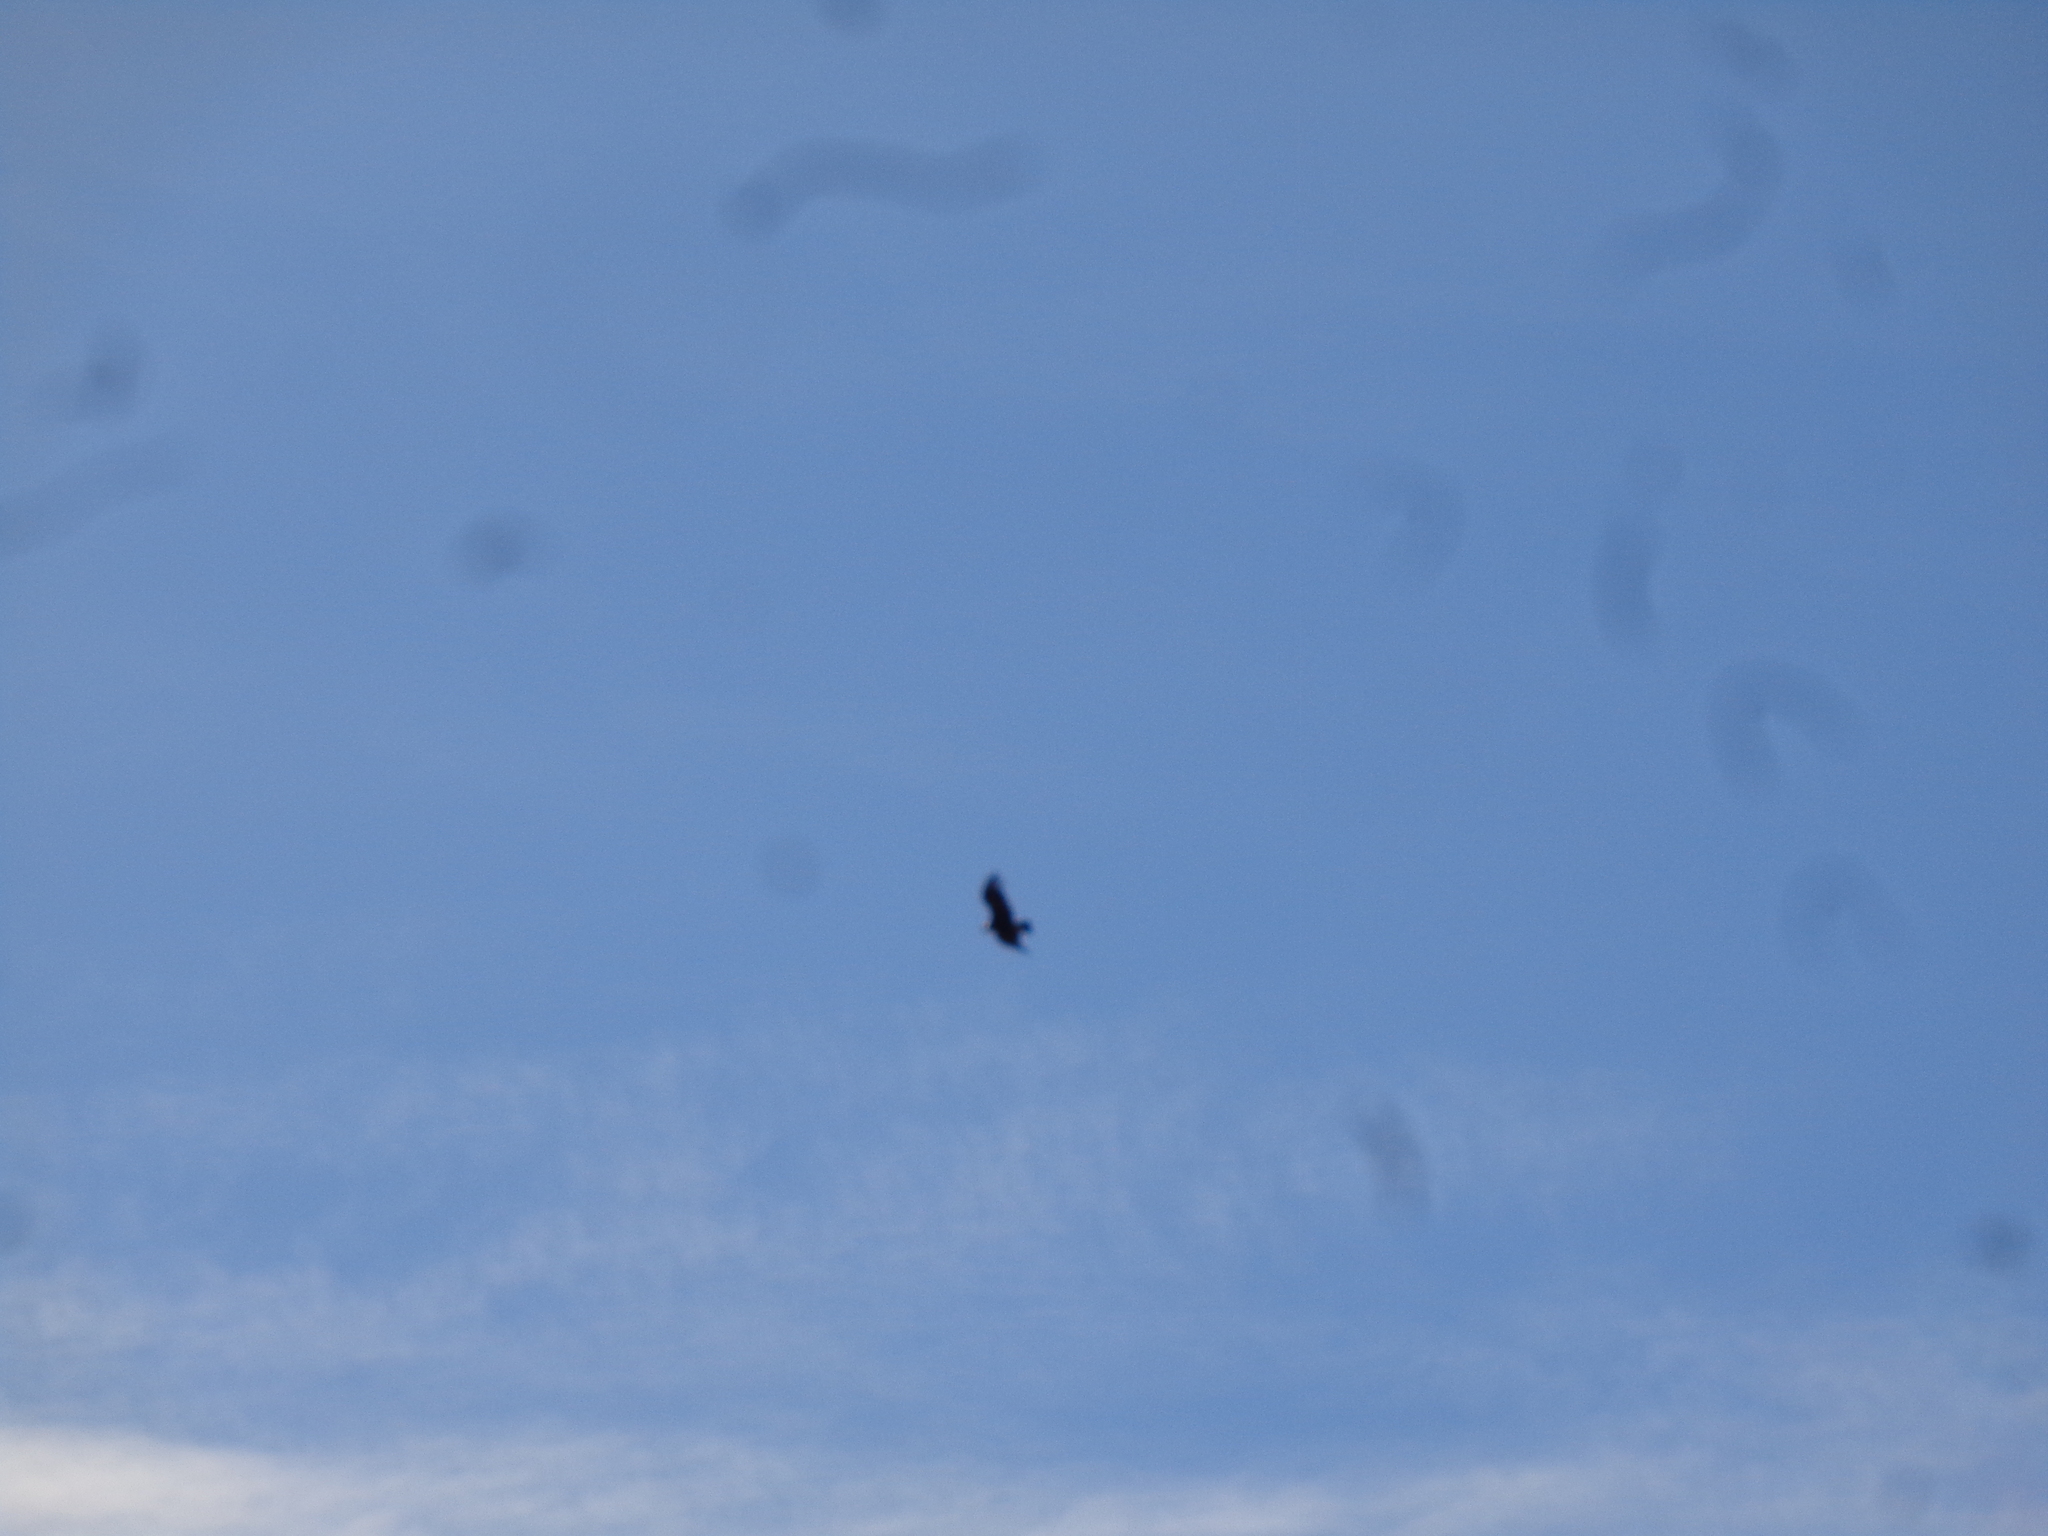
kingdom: Animalia
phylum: Chordata
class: Aves
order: Accipitriformes
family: Cathartidae
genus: Vultur
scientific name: Vultur gryphus
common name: Andean condor
